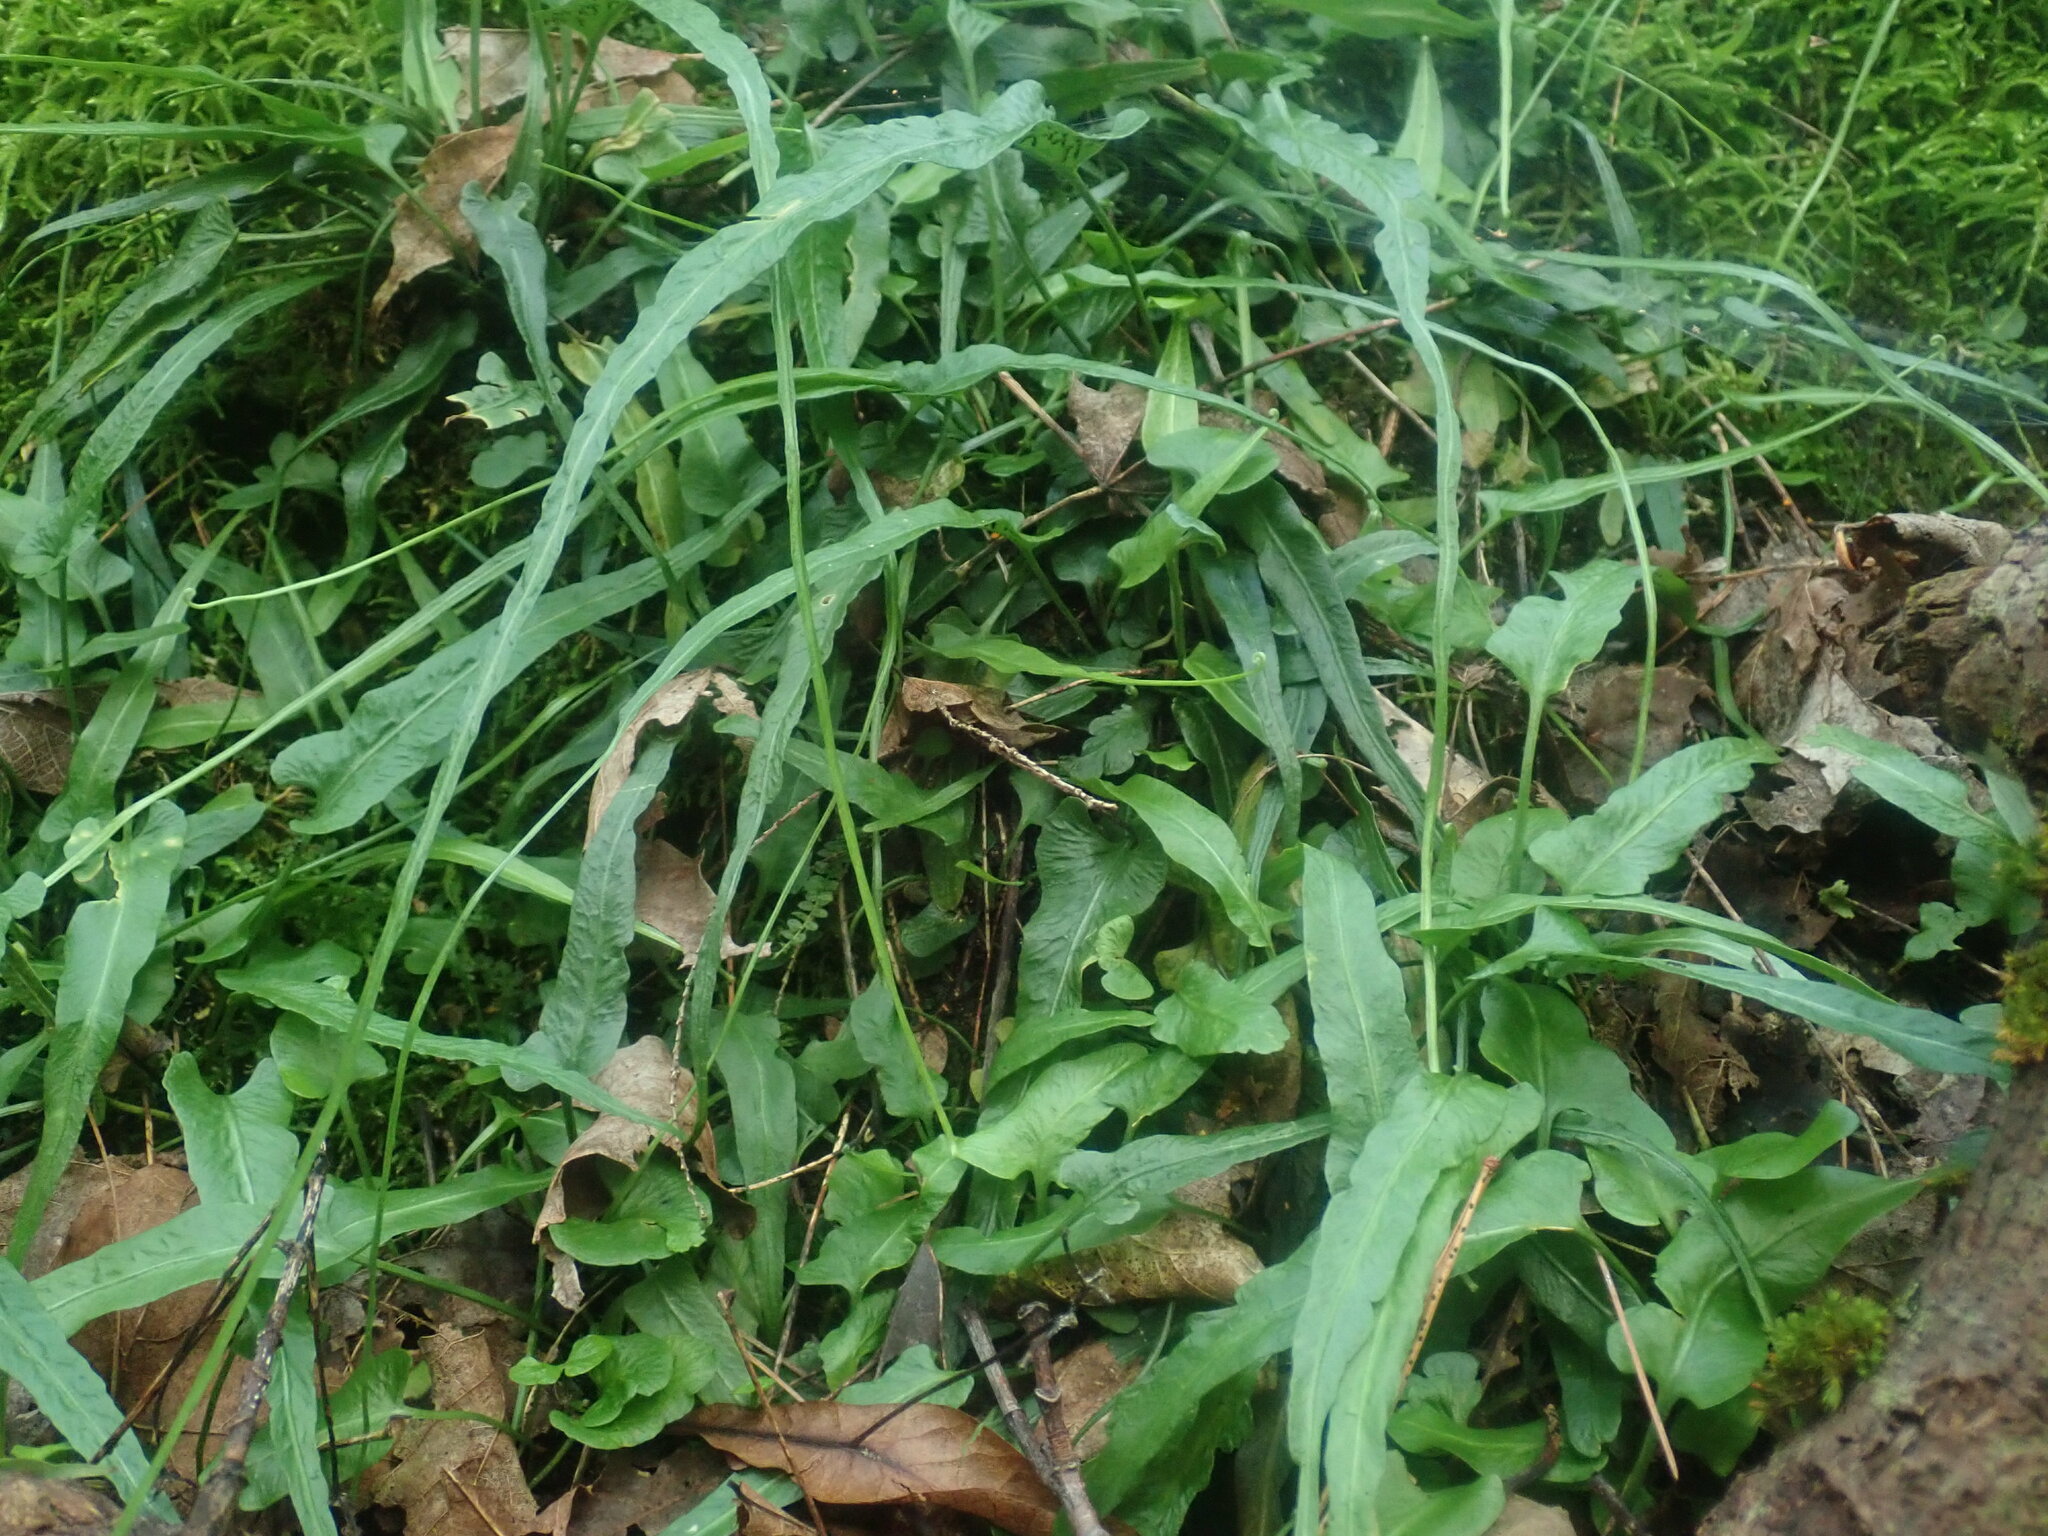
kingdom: Plantae
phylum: Tracheophyta
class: Polypodiopsida
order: Polypodiales
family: Aspleniaceae
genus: Asplenium
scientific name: Asplenium rhizophyllum
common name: Walking fern
